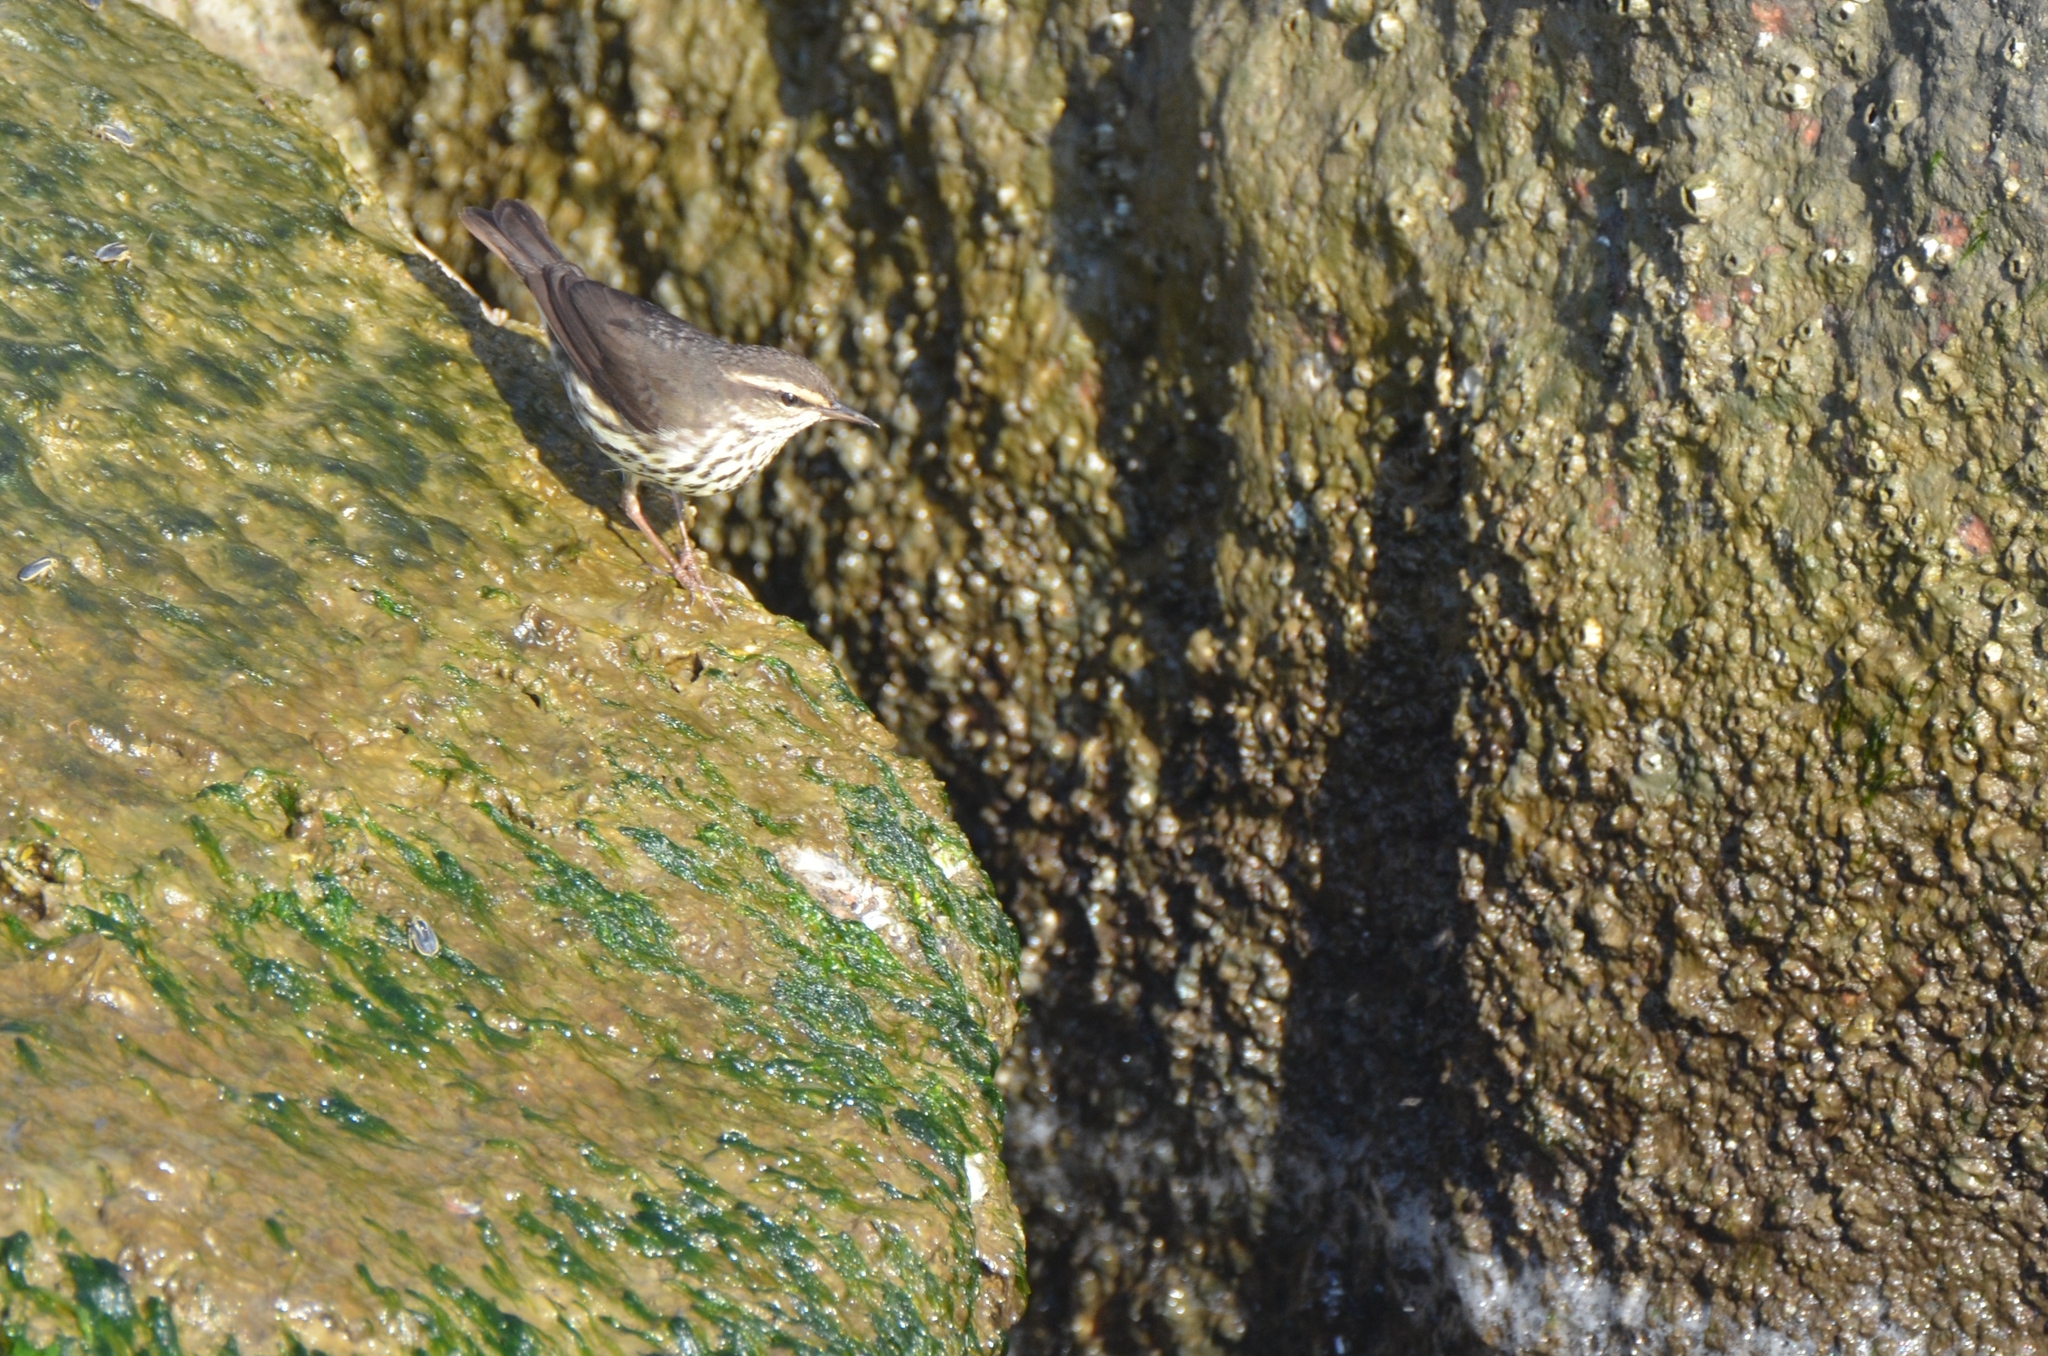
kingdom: Animalia
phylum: Chordata
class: Aves
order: Passeriformes
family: Parulidae
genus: Parkesia
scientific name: Parkesia noveboracensis
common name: Northern waterthrush
